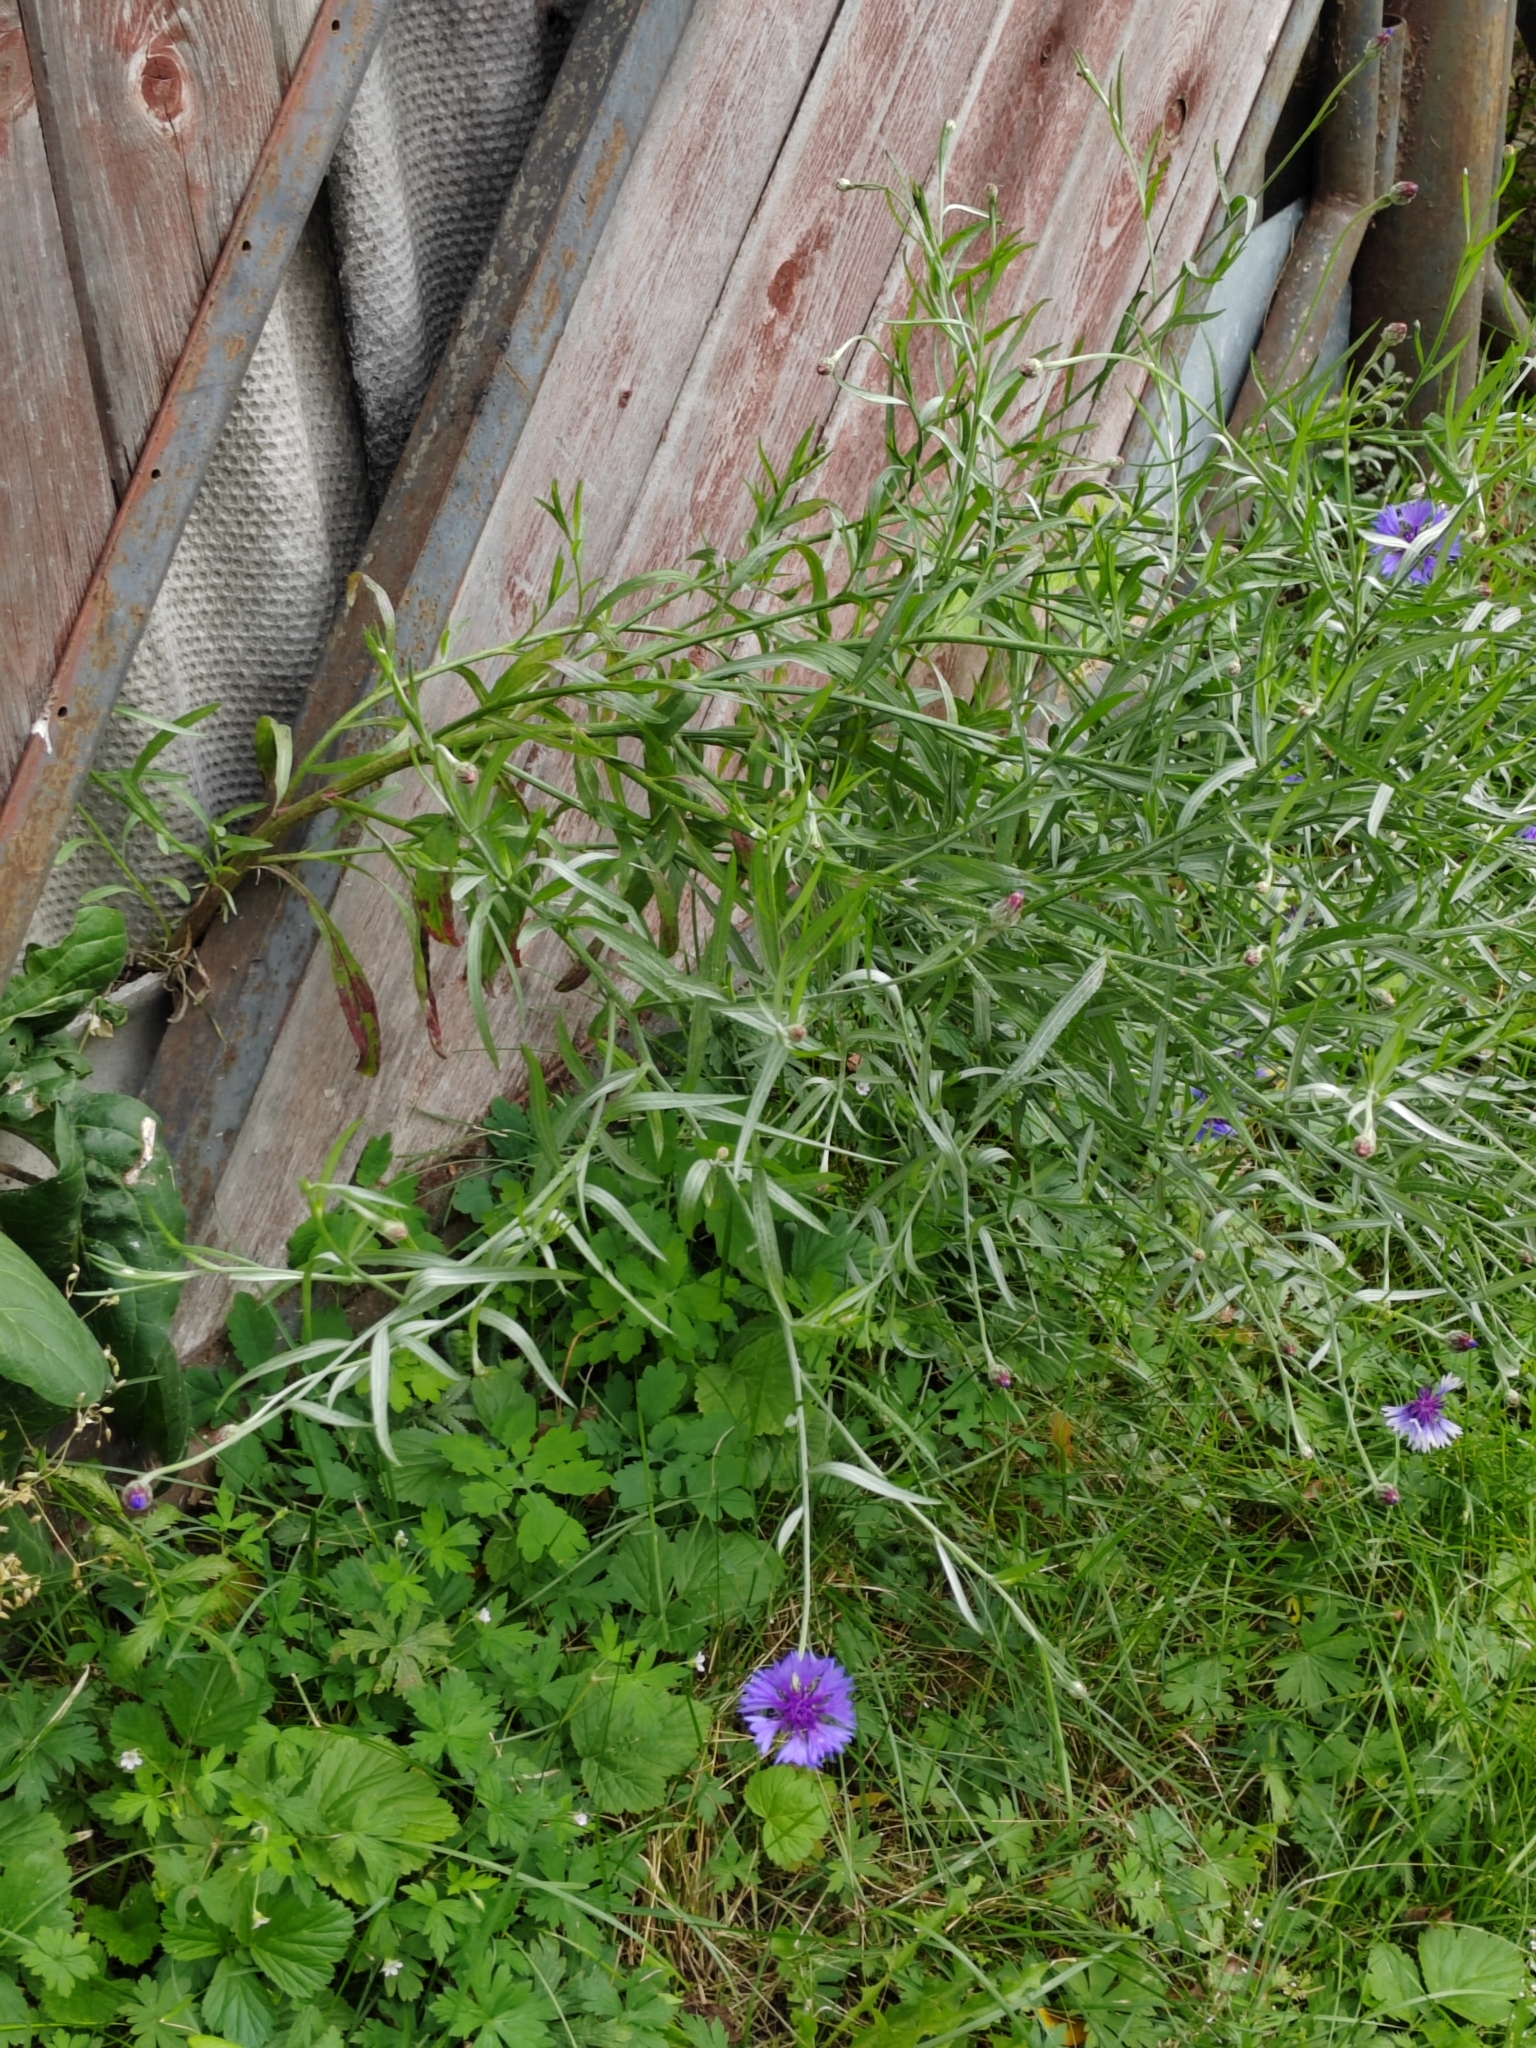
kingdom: Plantae
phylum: Tracheophyta
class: Magnoliopsida
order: Asterales
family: Asteraceae
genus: Centaurea
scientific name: Centaurea cyanus
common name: Cornflower
